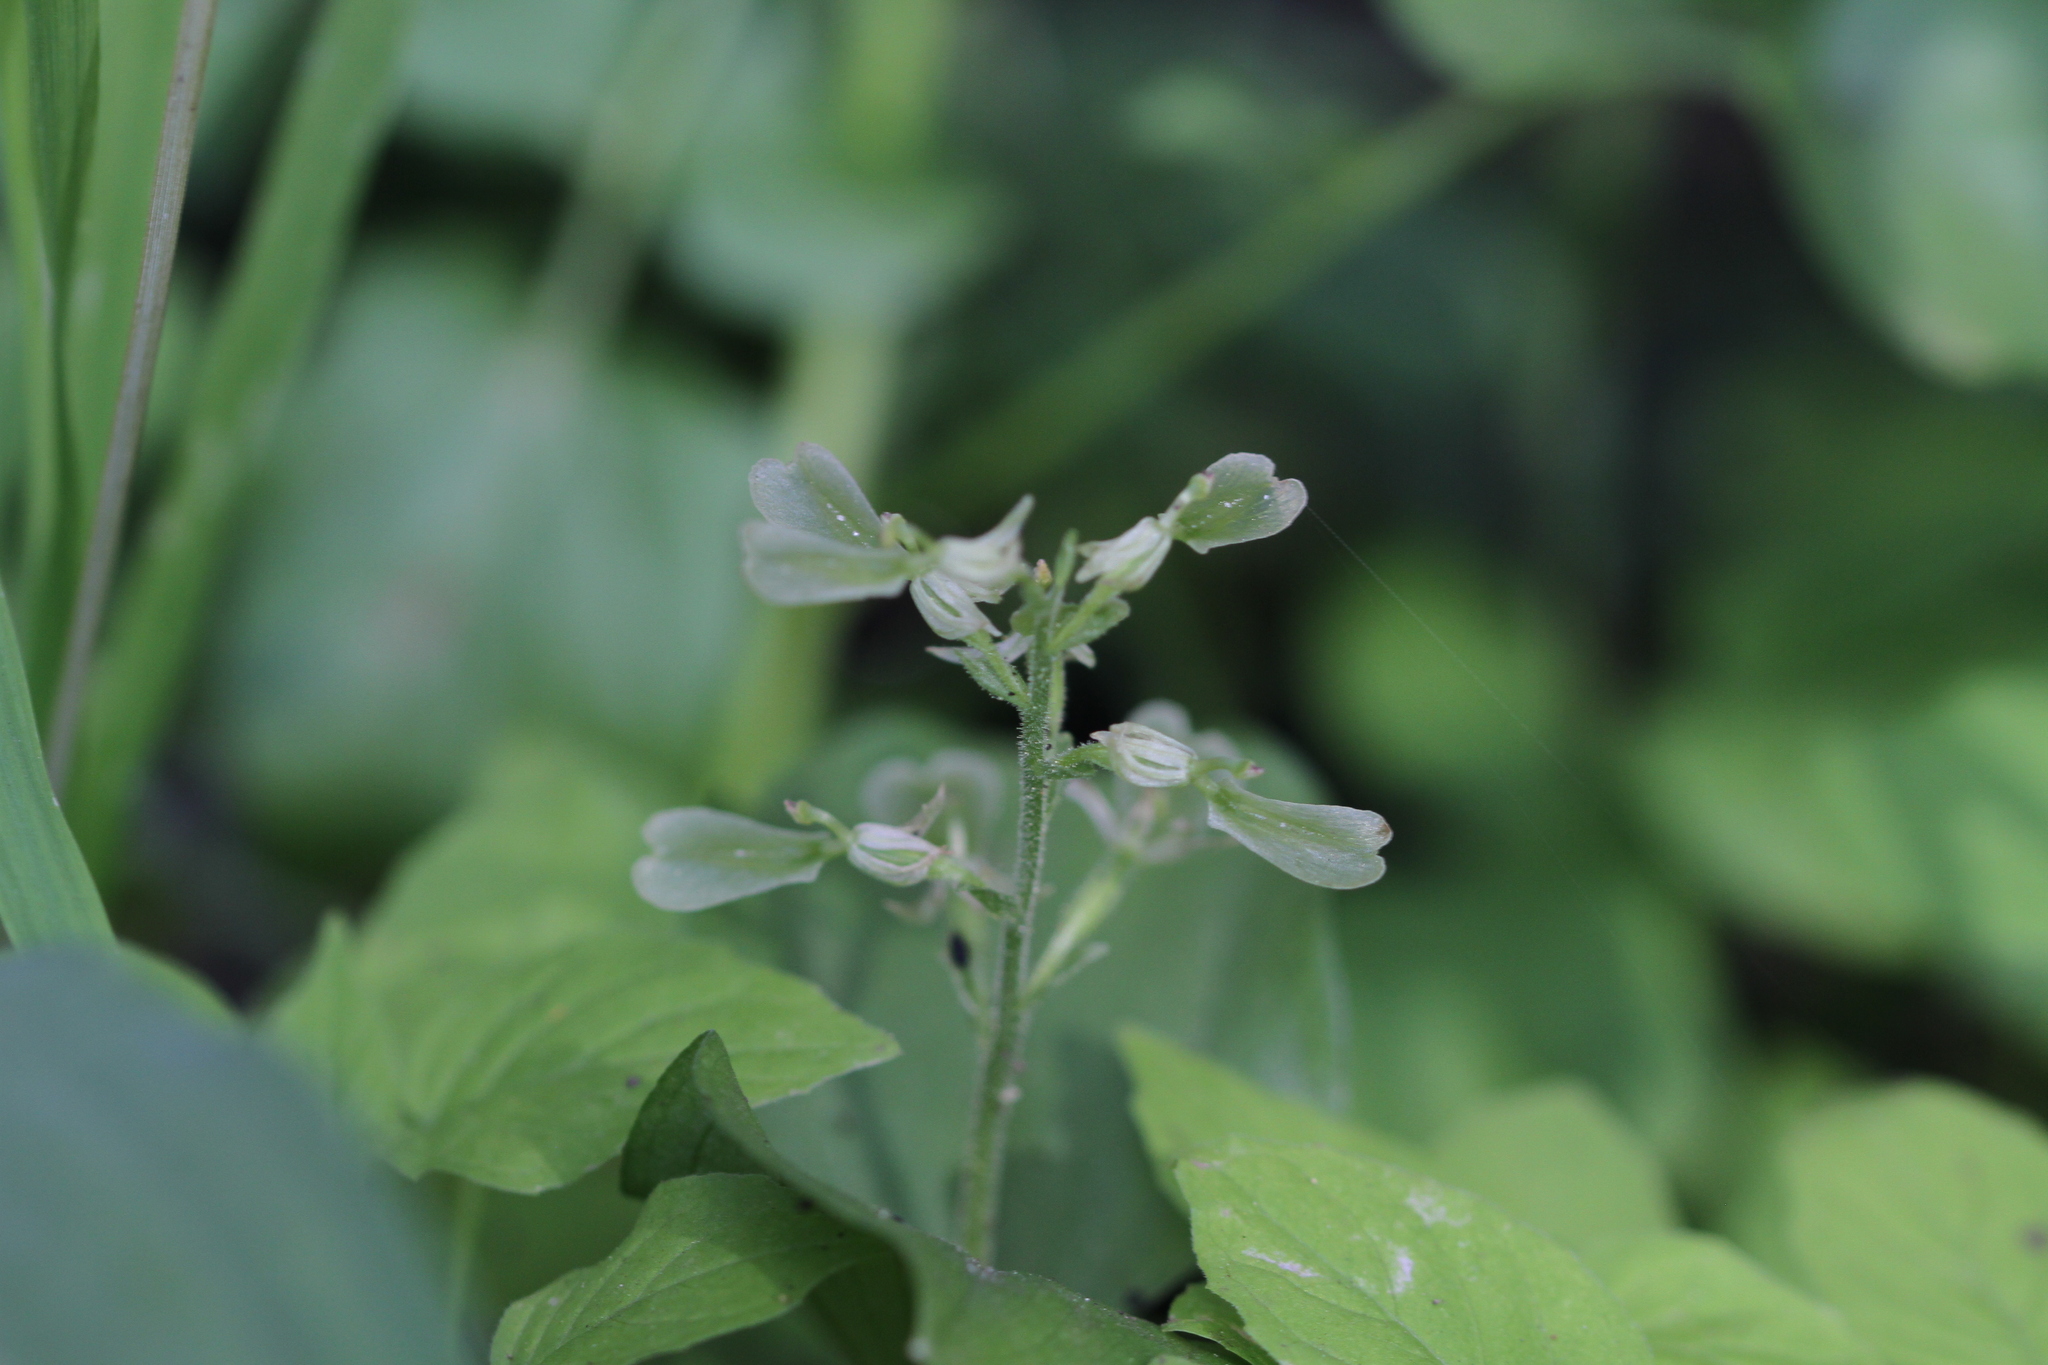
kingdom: Plantae
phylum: Tracheophyta
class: Liliopsida
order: Asparagales
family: Orchidaceae
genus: Neottia
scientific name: Neottia convallarioides
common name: Broadleaf twayblade
